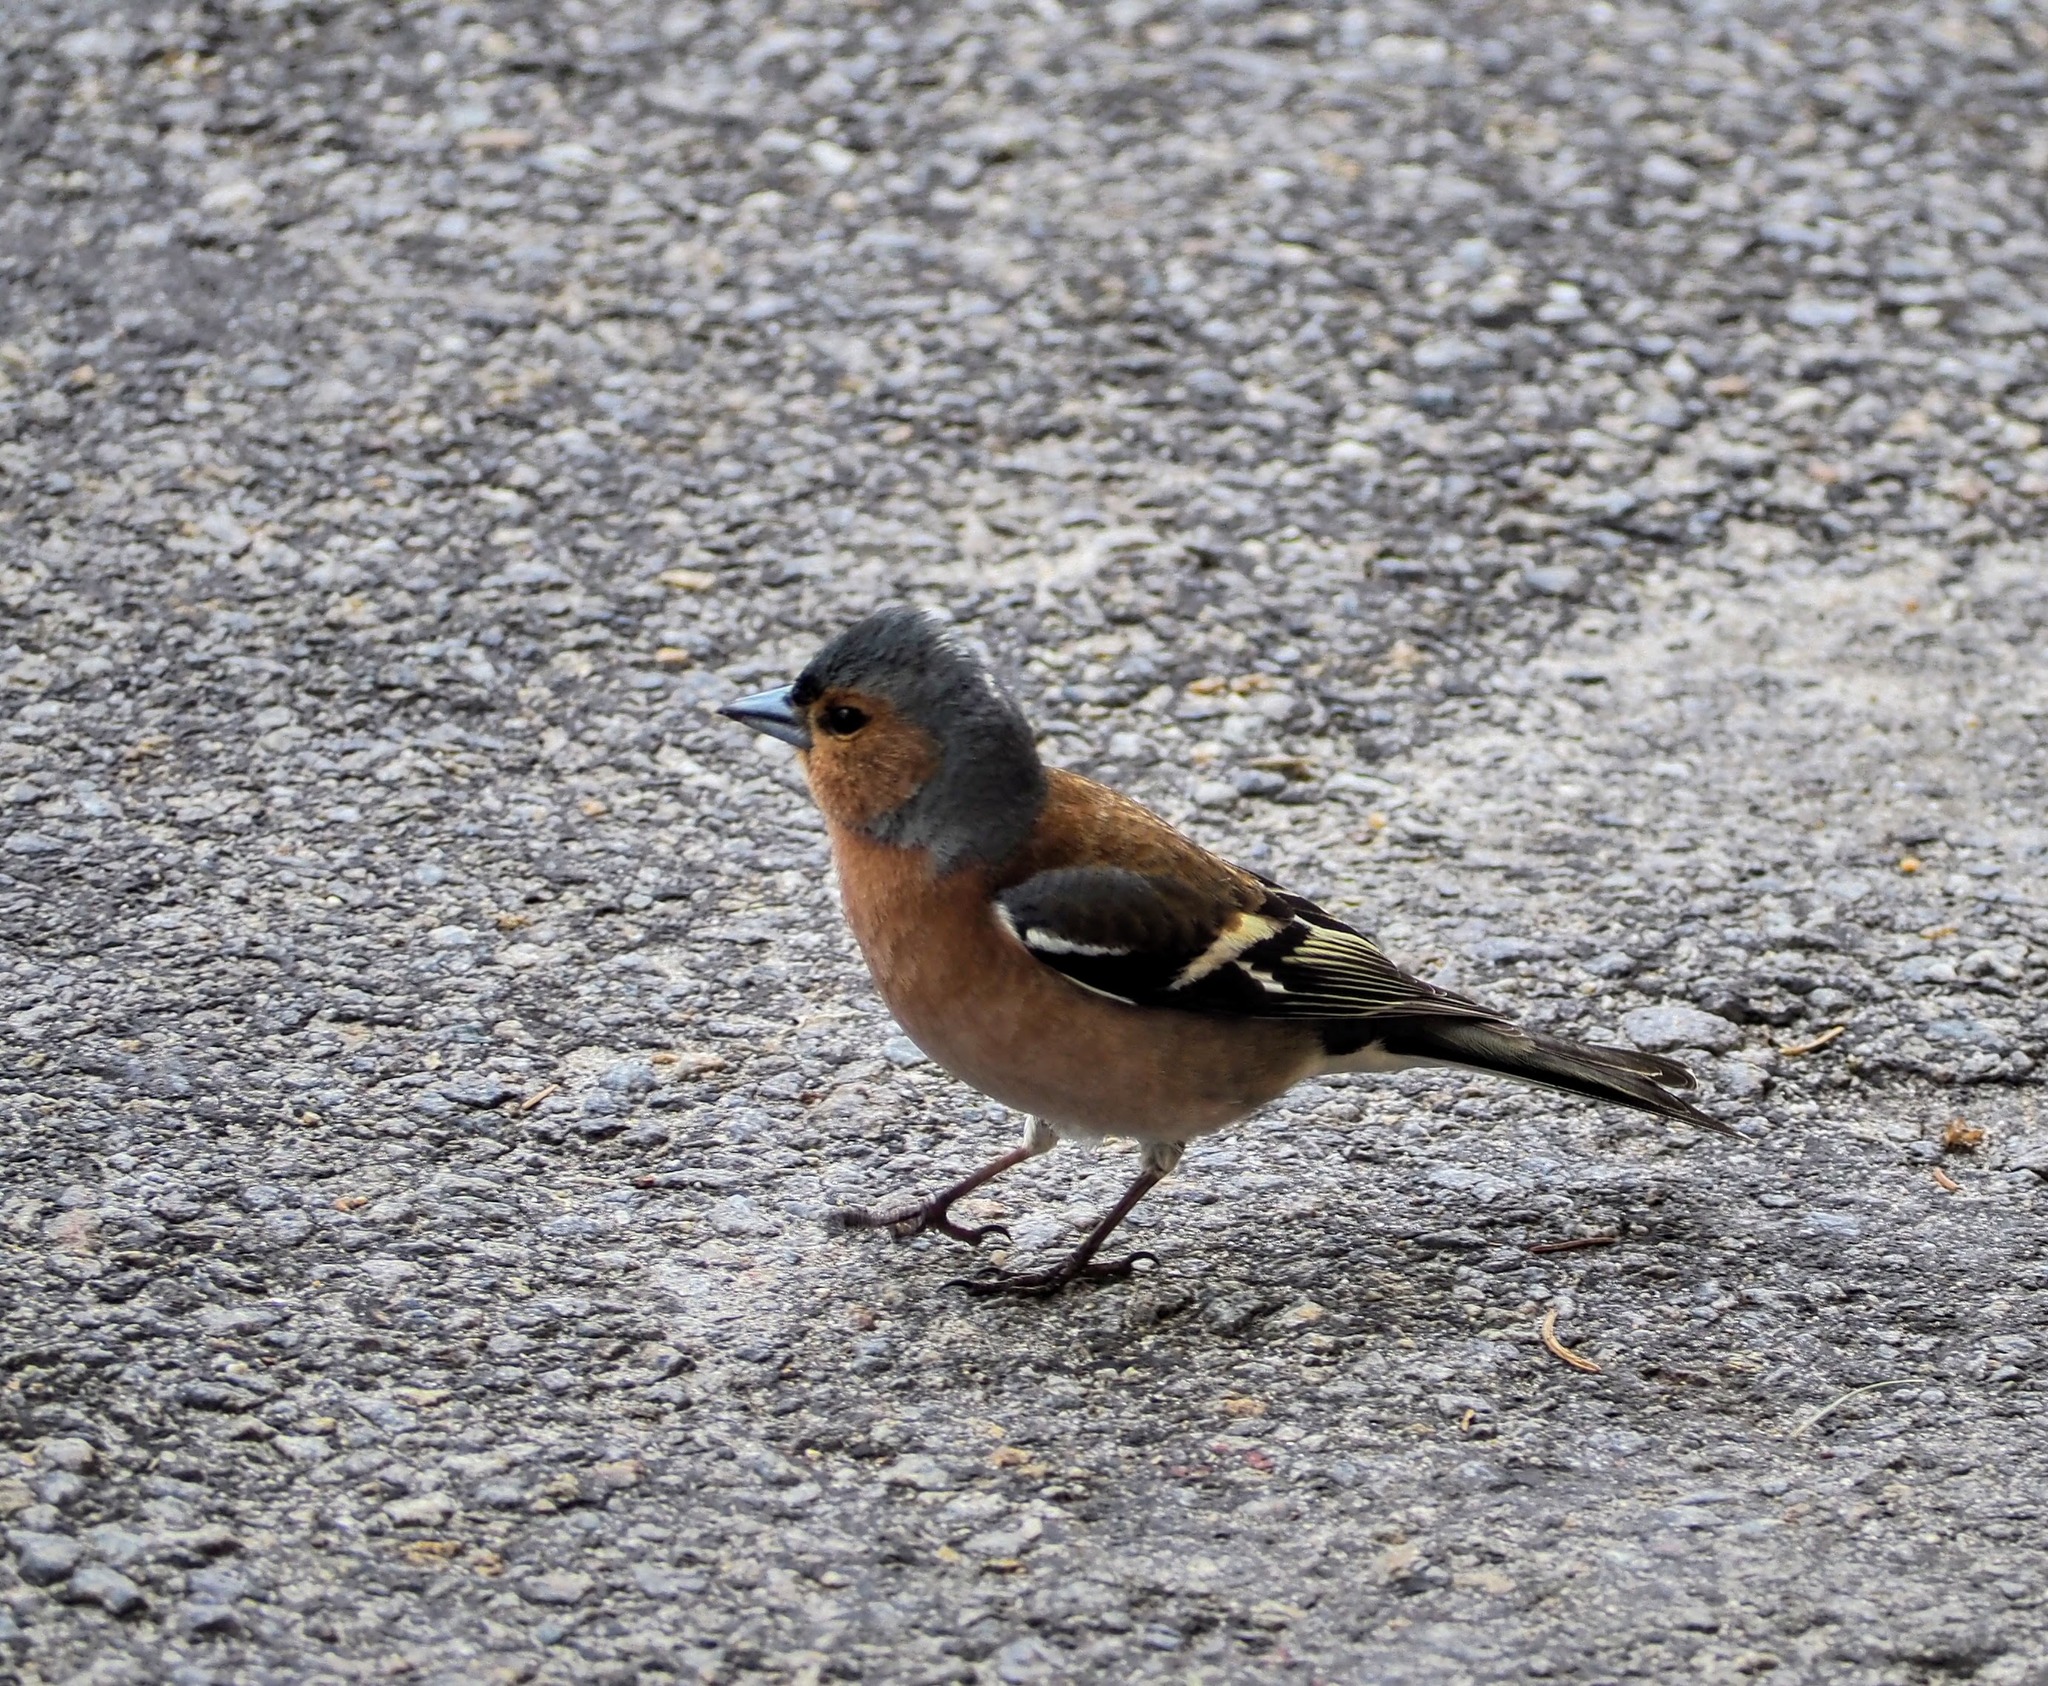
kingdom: Animalia
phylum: Chordata
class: Aves
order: Passeriformes
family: Fringillidae
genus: Fringilla
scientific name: Fringilla coelebs
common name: Common chaffinch
